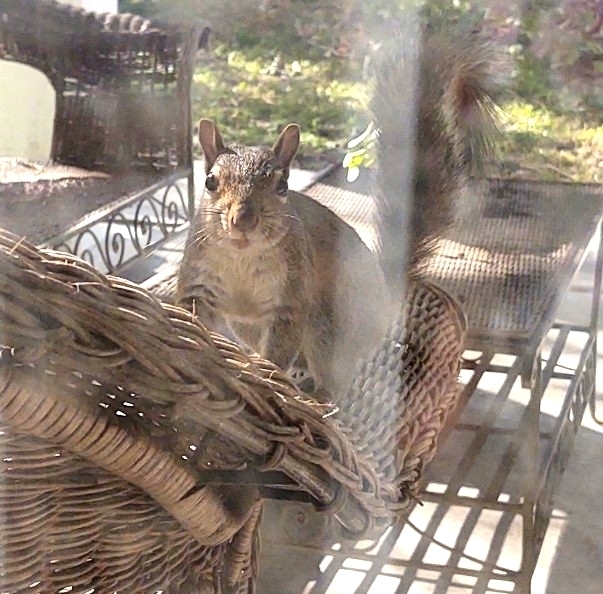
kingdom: Animalia
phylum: Chordata
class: Mammalia
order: Rodentia
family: Sciuridae
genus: Sciurus
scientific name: Sciurus carolinensis
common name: Eastern gray squirrel
